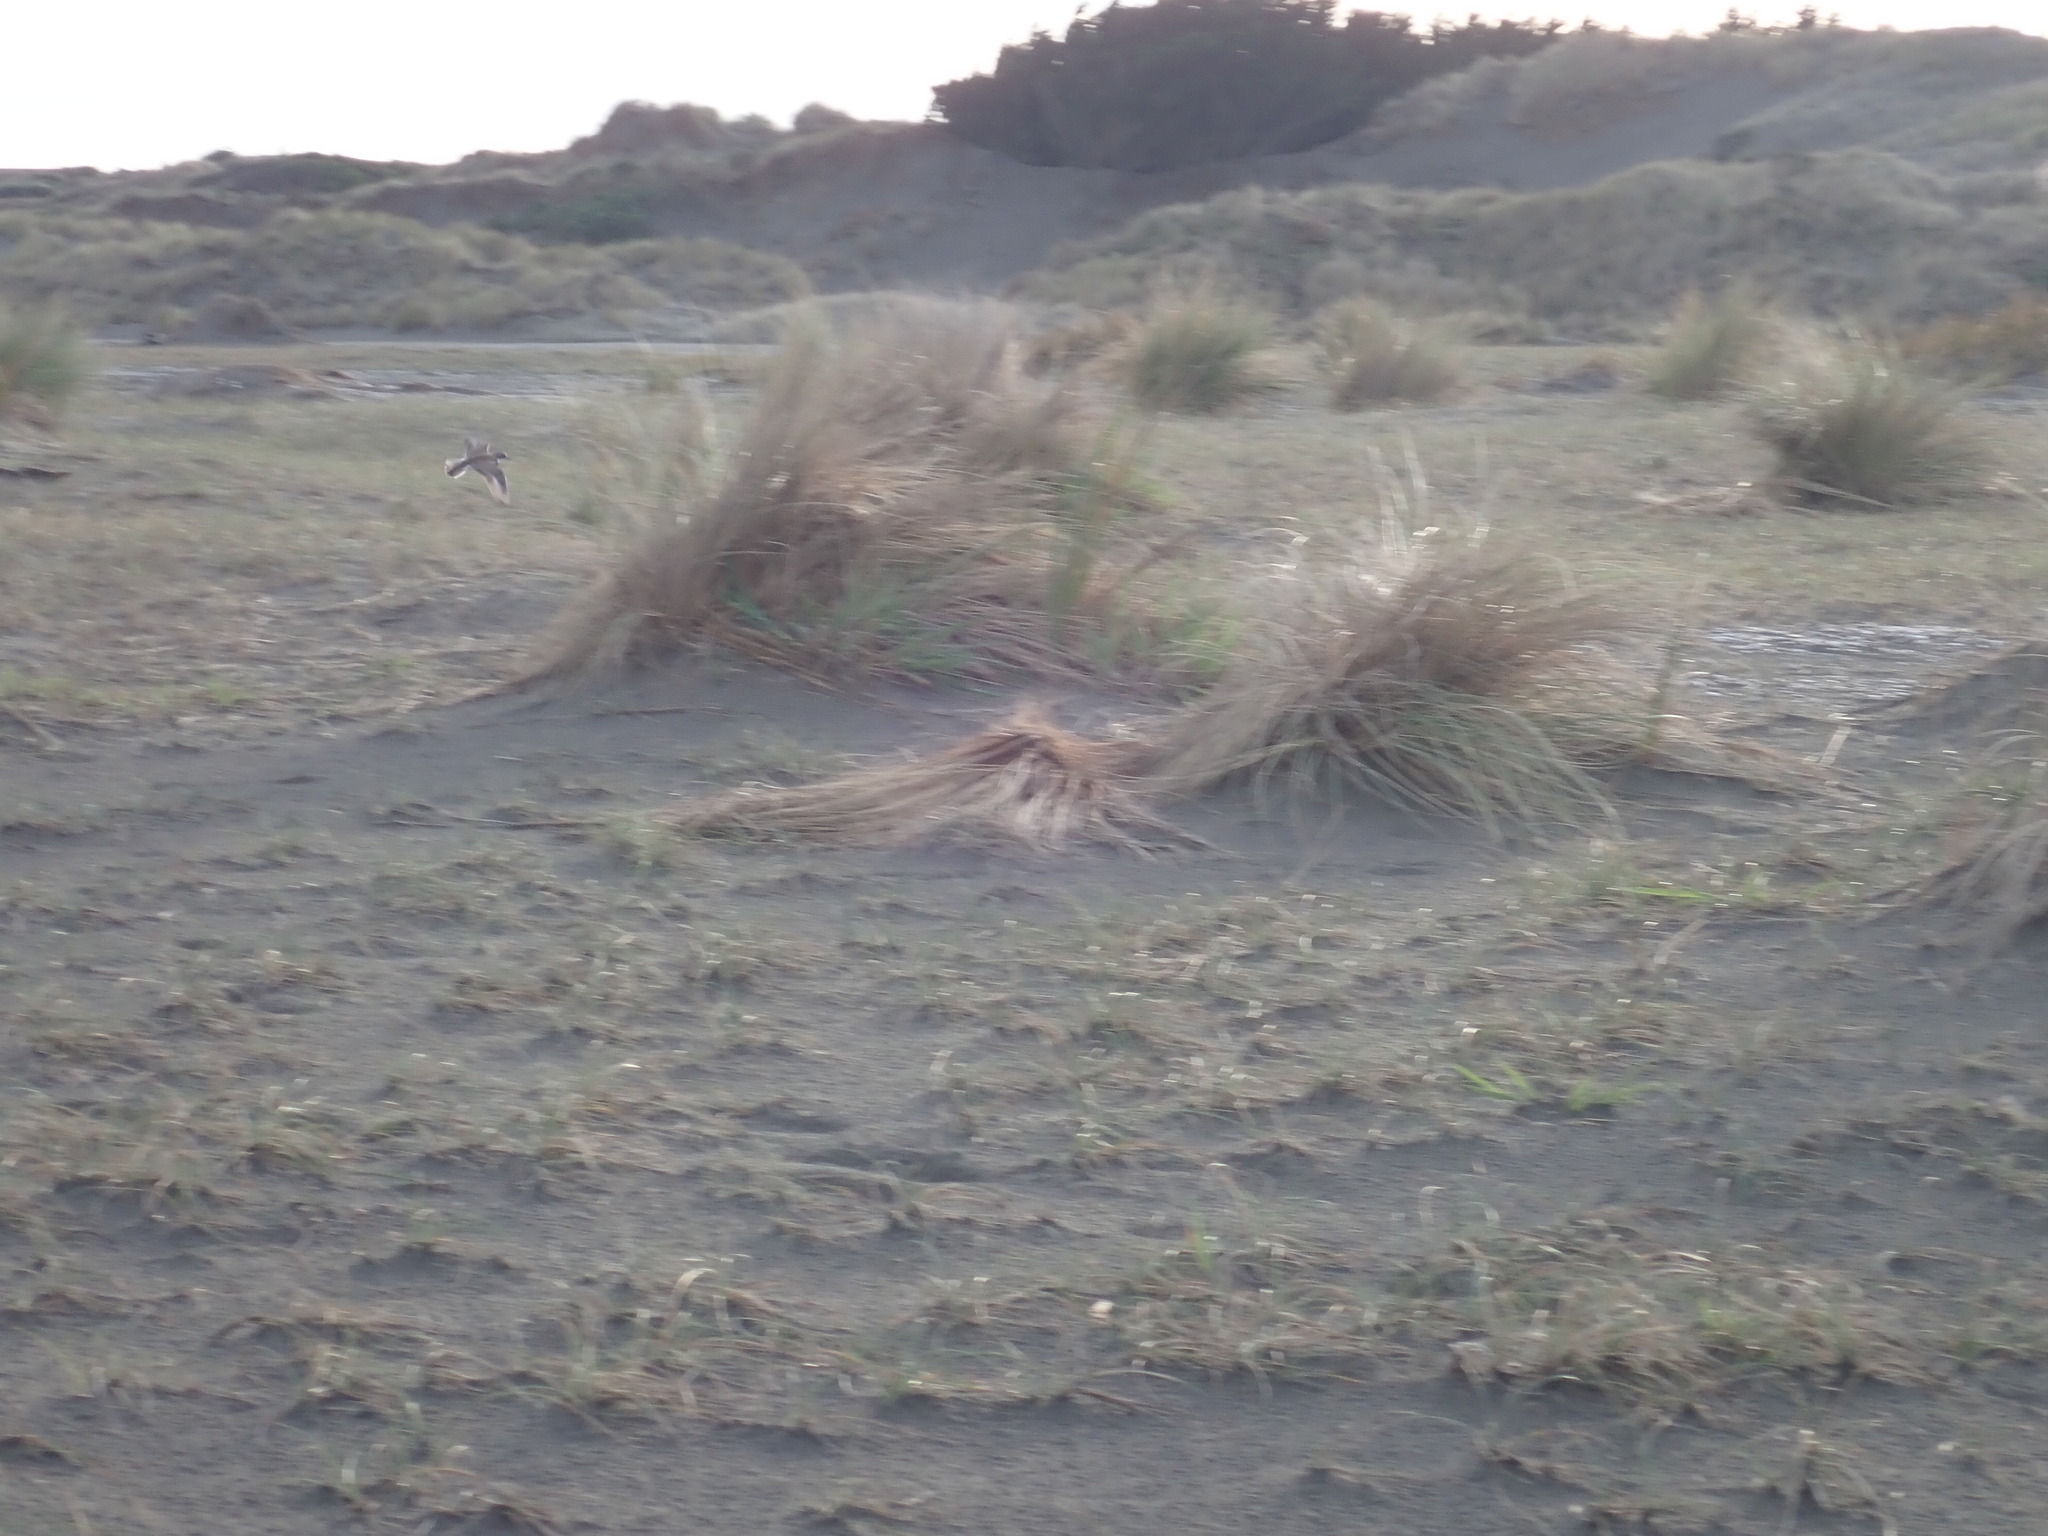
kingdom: Animalia
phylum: Chordata
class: Aves
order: Charadriiformes
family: Charadriidae
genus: Anarhynchus
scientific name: Anarhynchus
